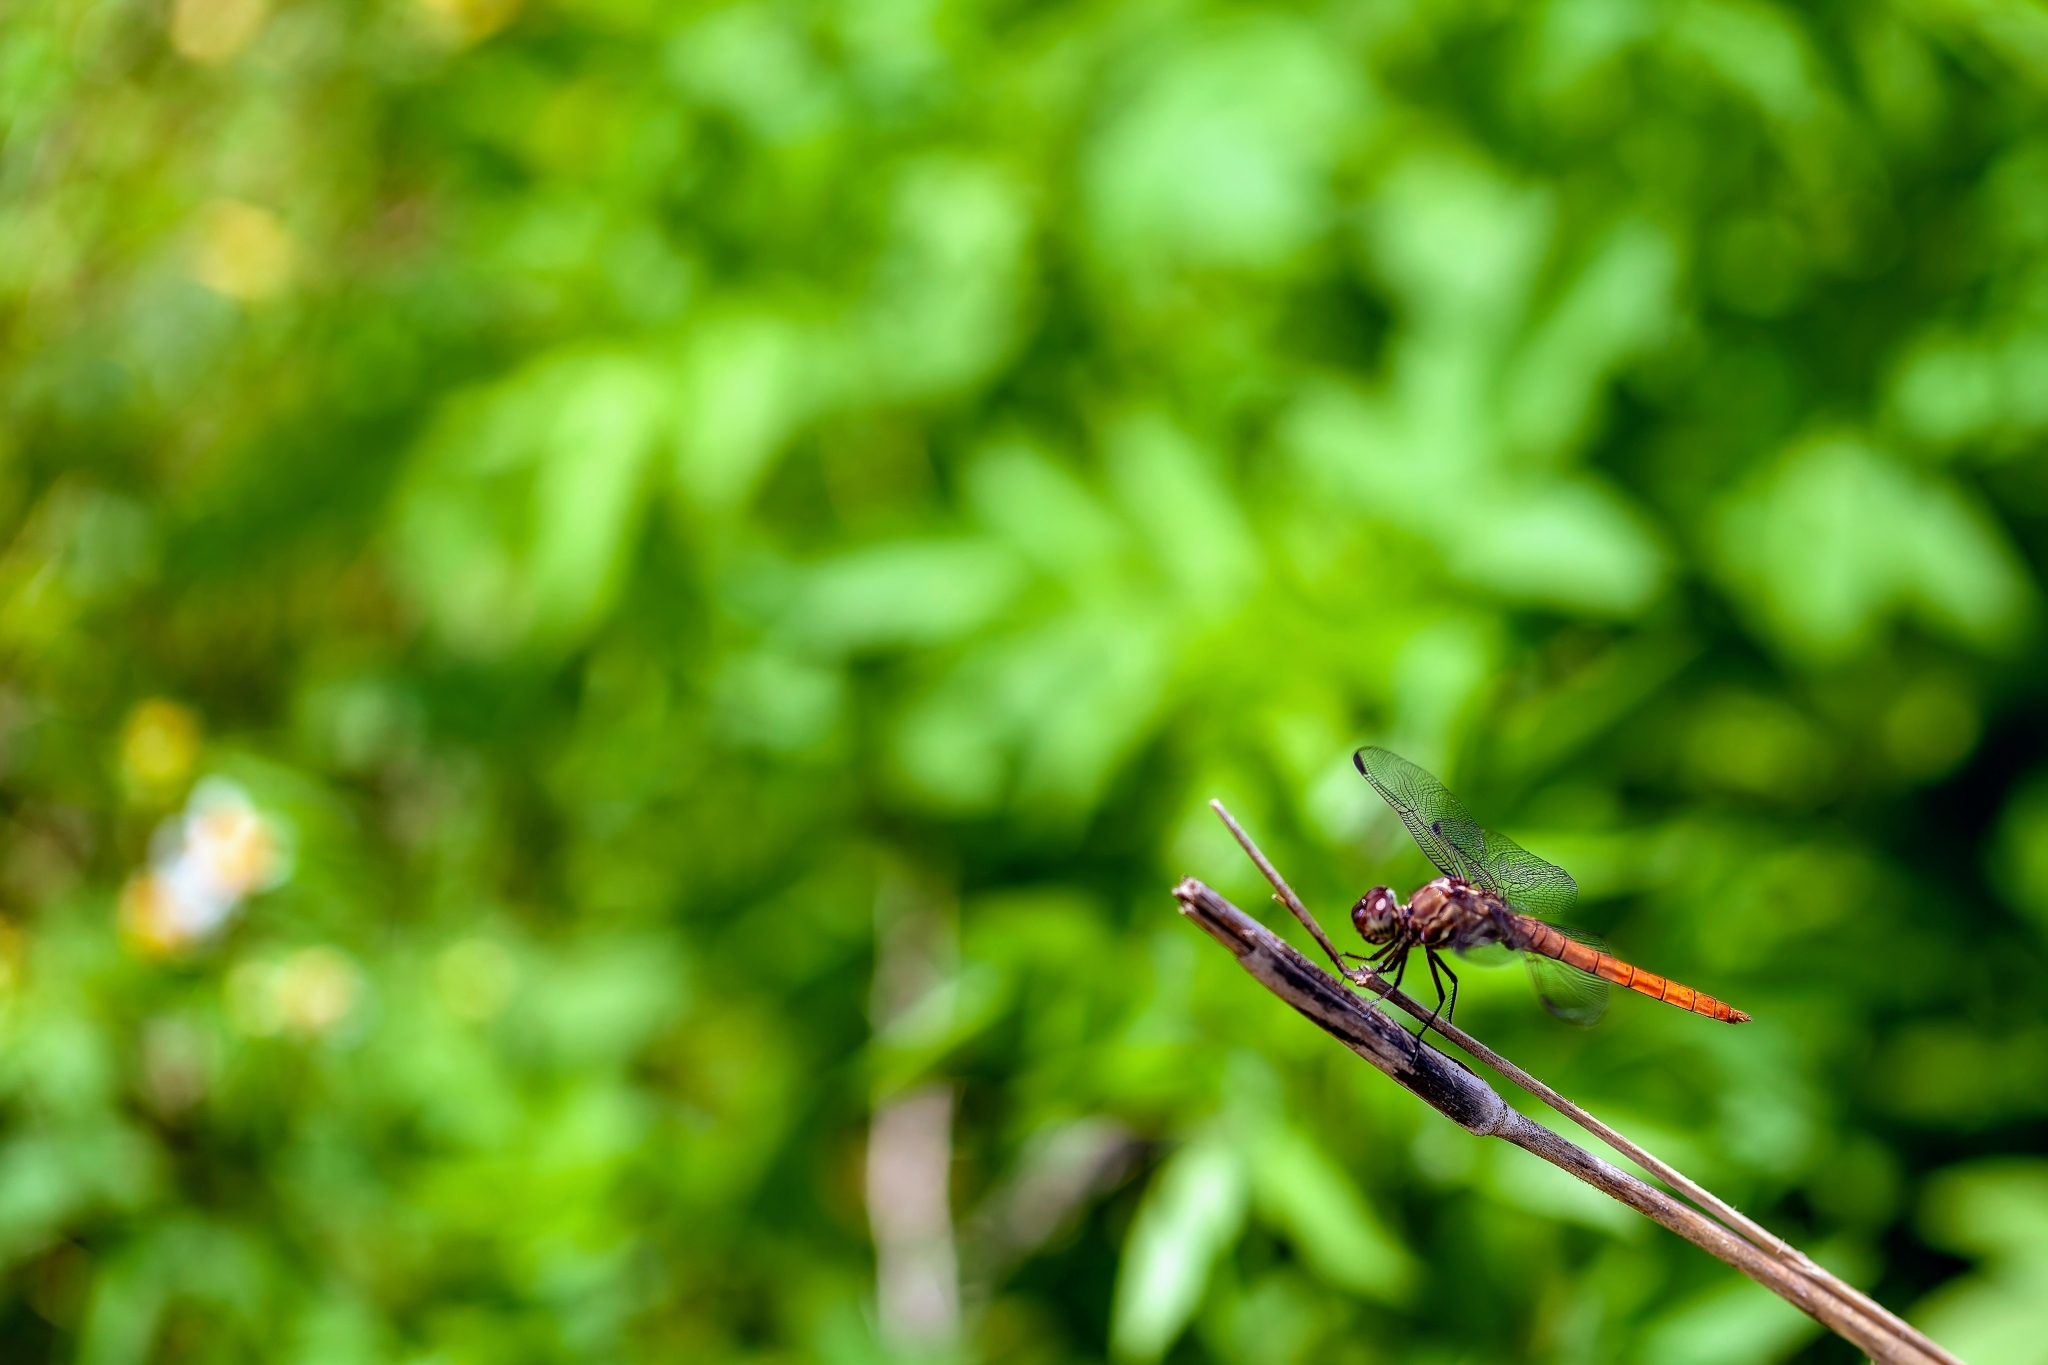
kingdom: Animalia
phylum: Arthropoda
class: Insecta
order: Odonata
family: Libellulidae
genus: Orthemis
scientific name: Orthemis ferruginea
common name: Roseate skimmer
